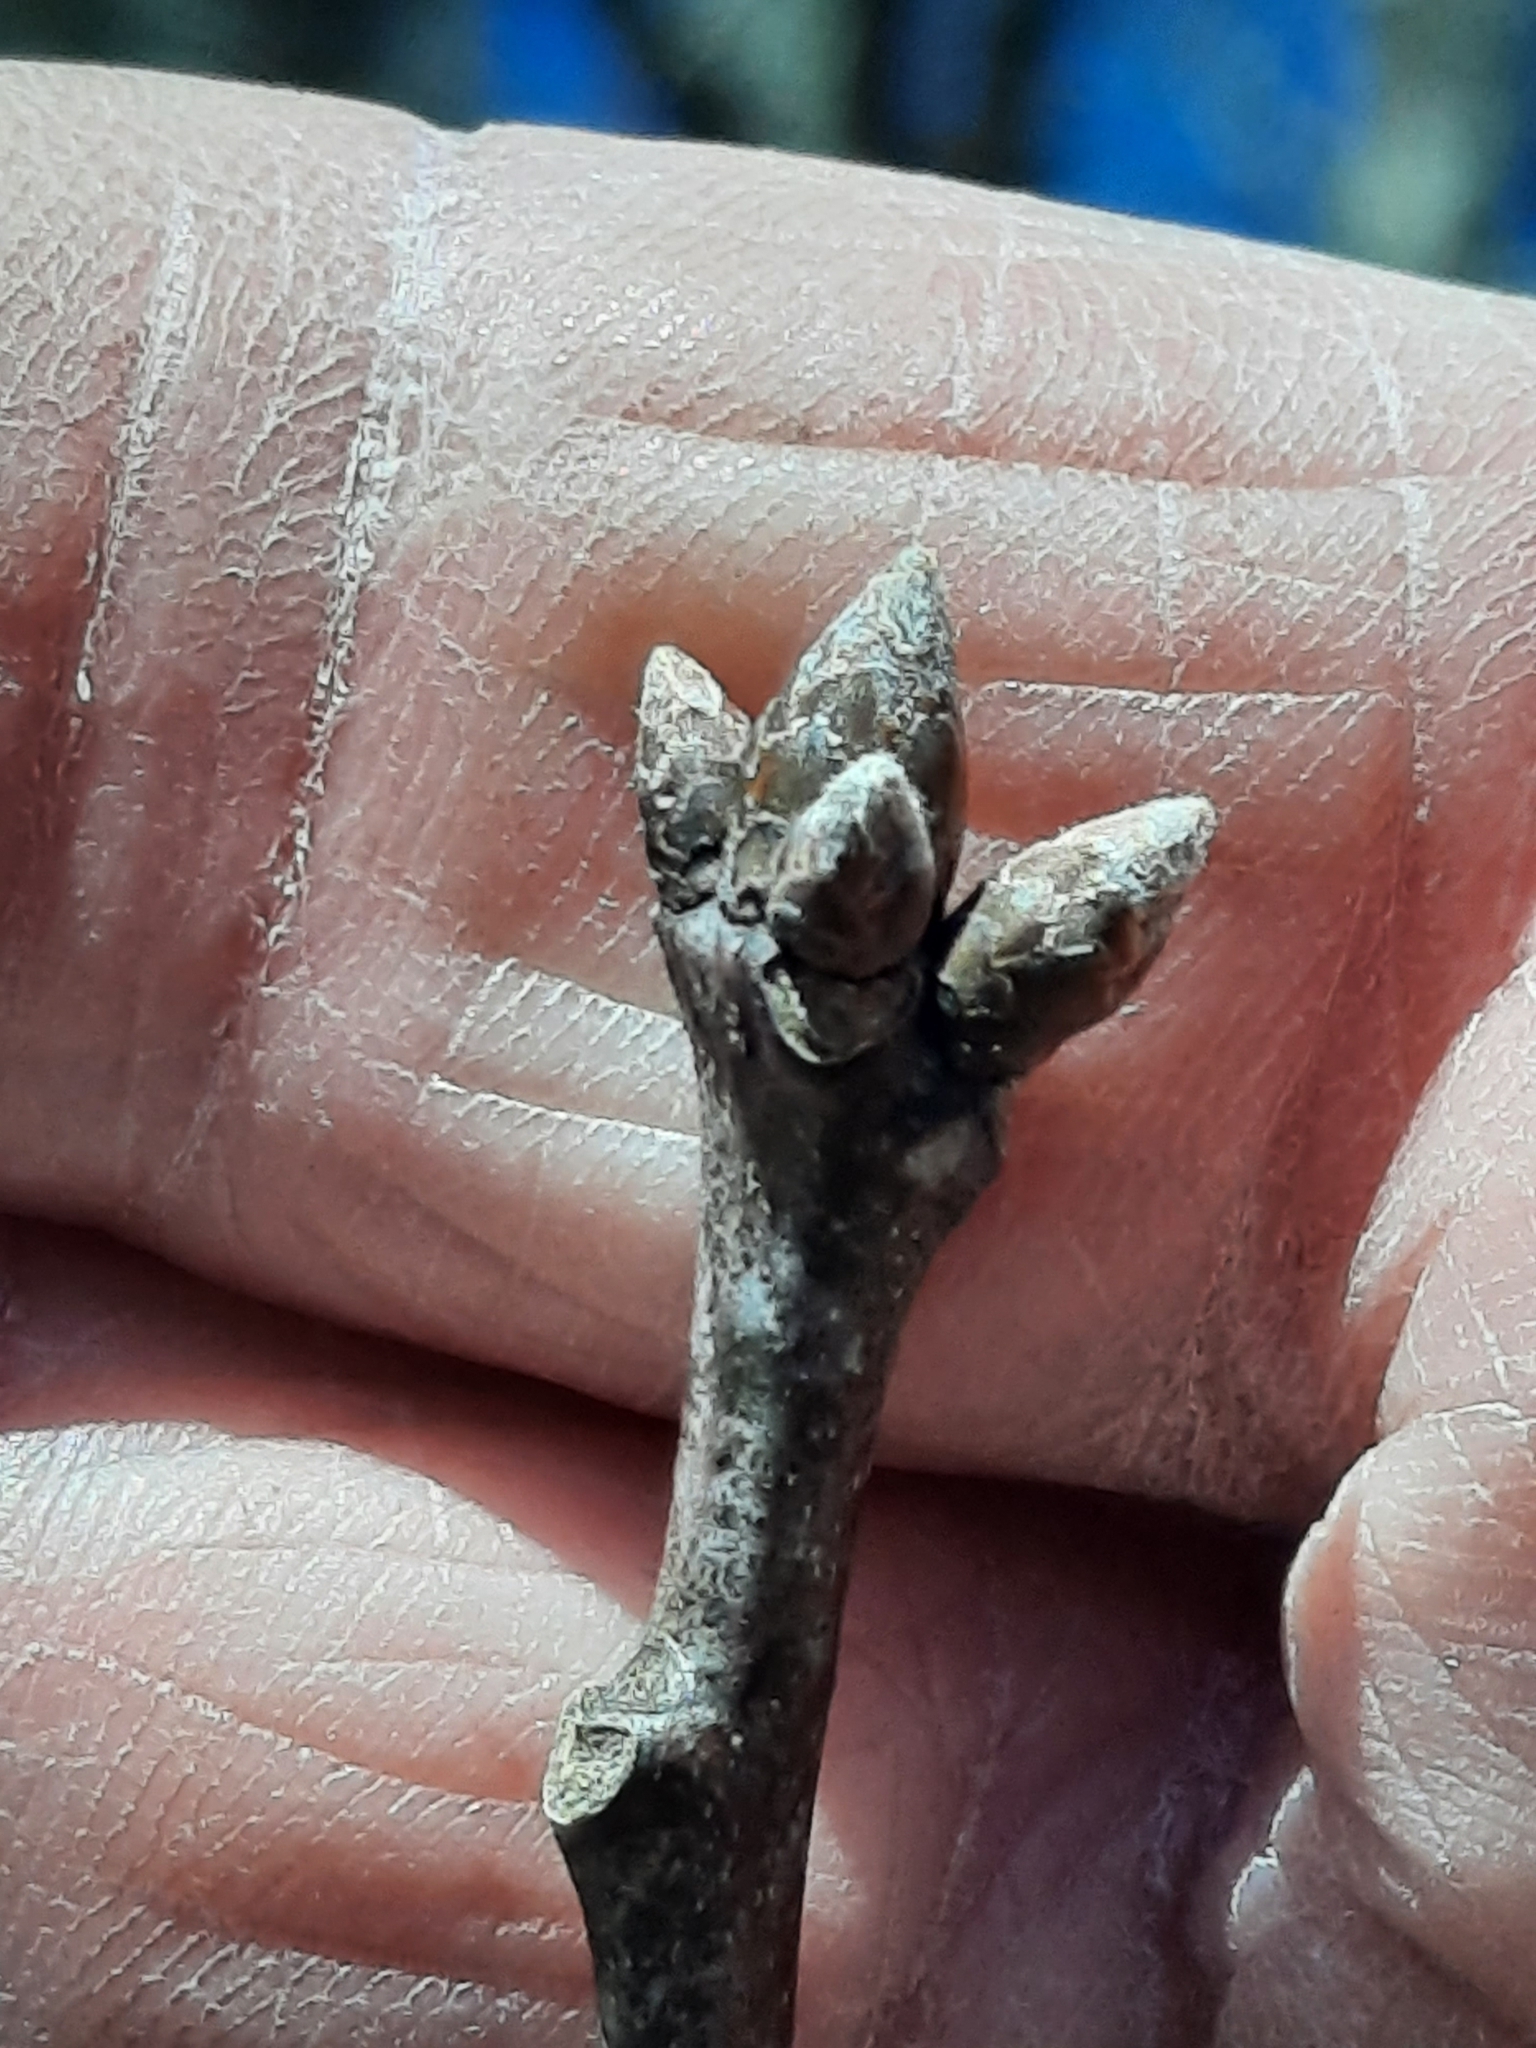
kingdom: Plantae
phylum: Tracheophyta
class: Magnoliopsida
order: Fagales
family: Fagaceae
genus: Quercus
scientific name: Quercus velutina
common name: Black oak
